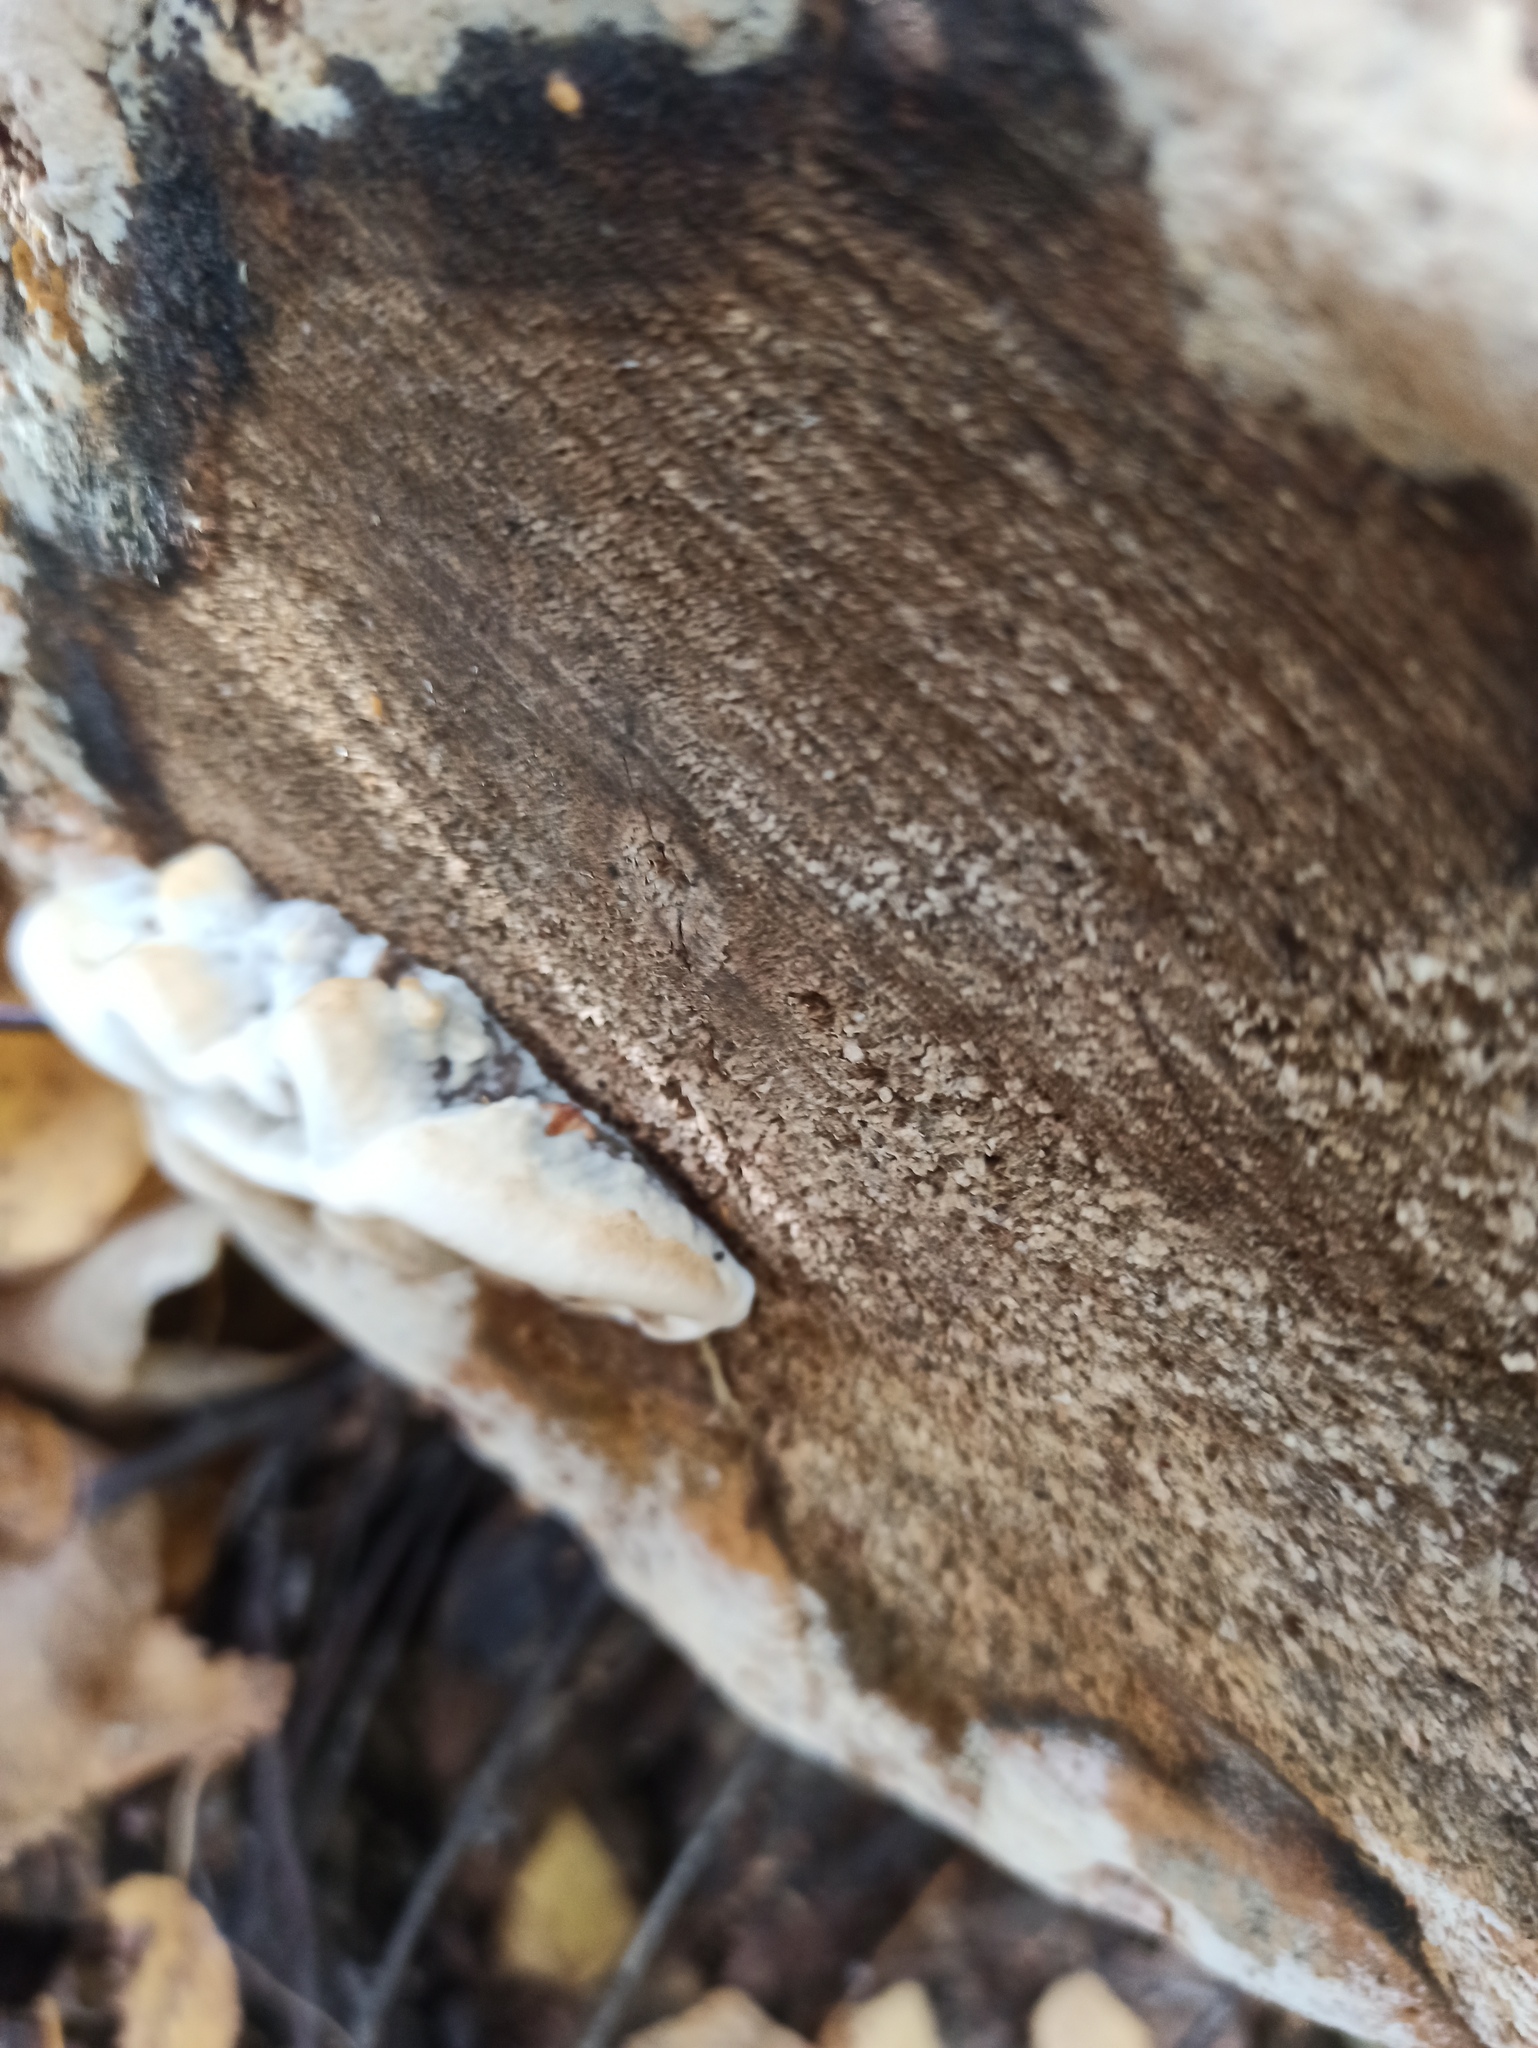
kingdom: Fungi
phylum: Basidiomycota
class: Agaricomycetes
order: Polyporales
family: Phanerochaetaceae
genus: Bjerkandera
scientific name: Bjerkandera adusta
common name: Smoky bracket
